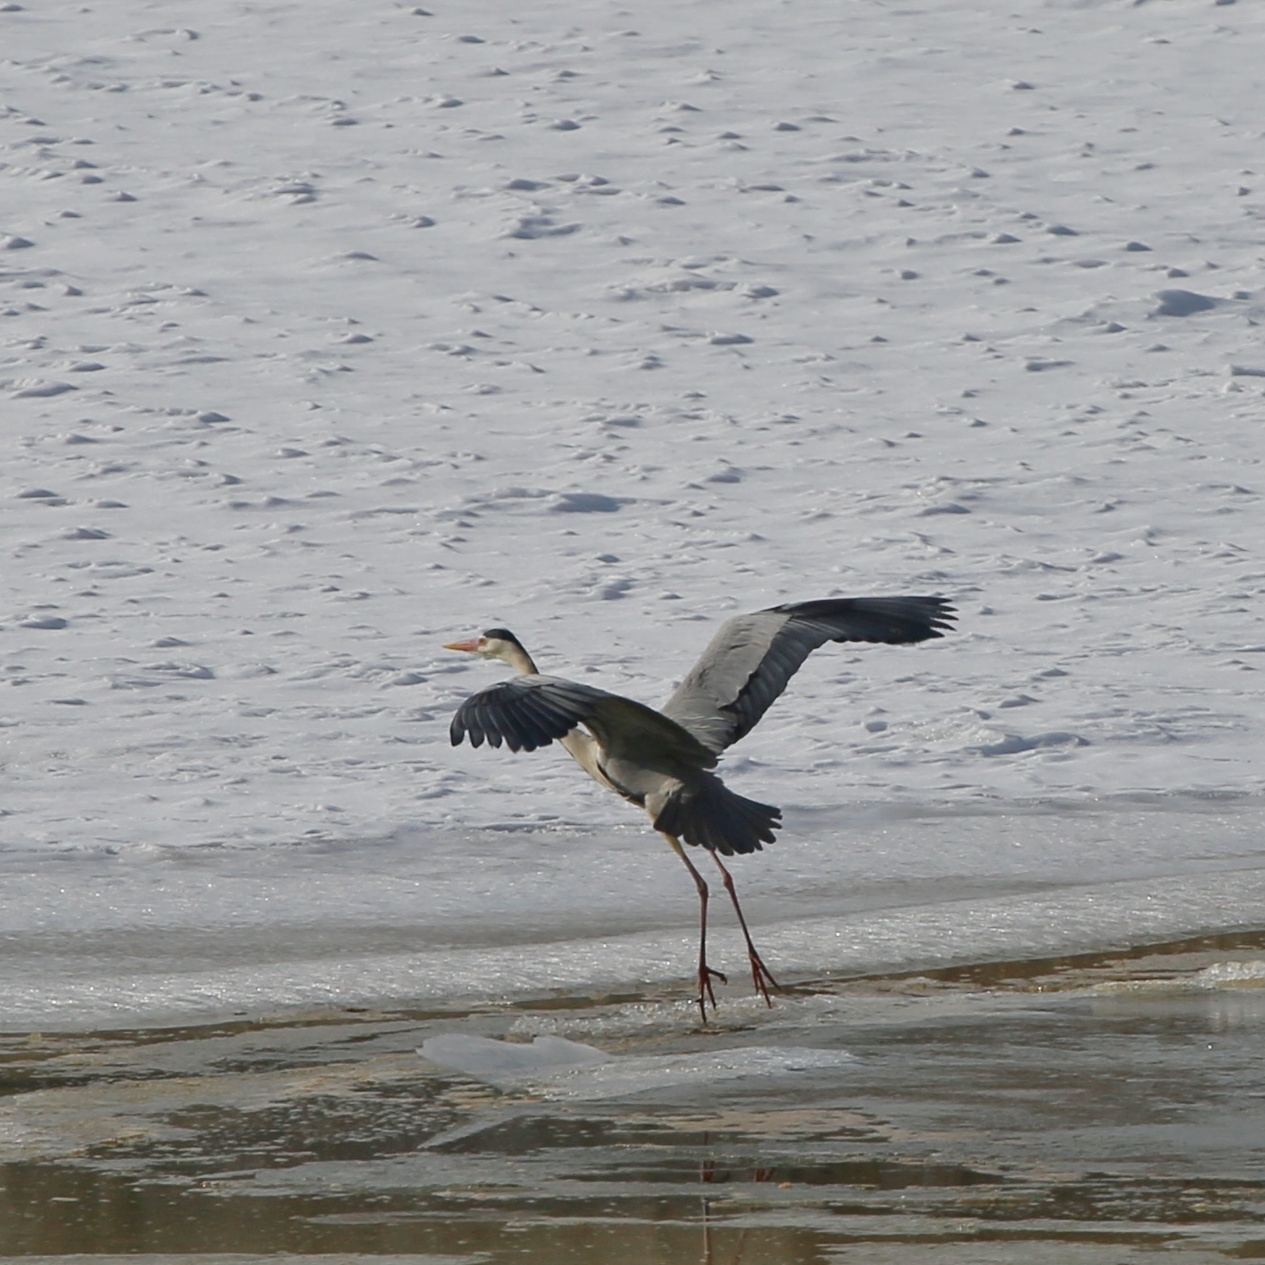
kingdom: Animalia
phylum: Chordata
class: Aves
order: Pelecaniformes
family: Ardeidae
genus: Ardea
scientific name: Ardea cinerea
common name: Grey heron
